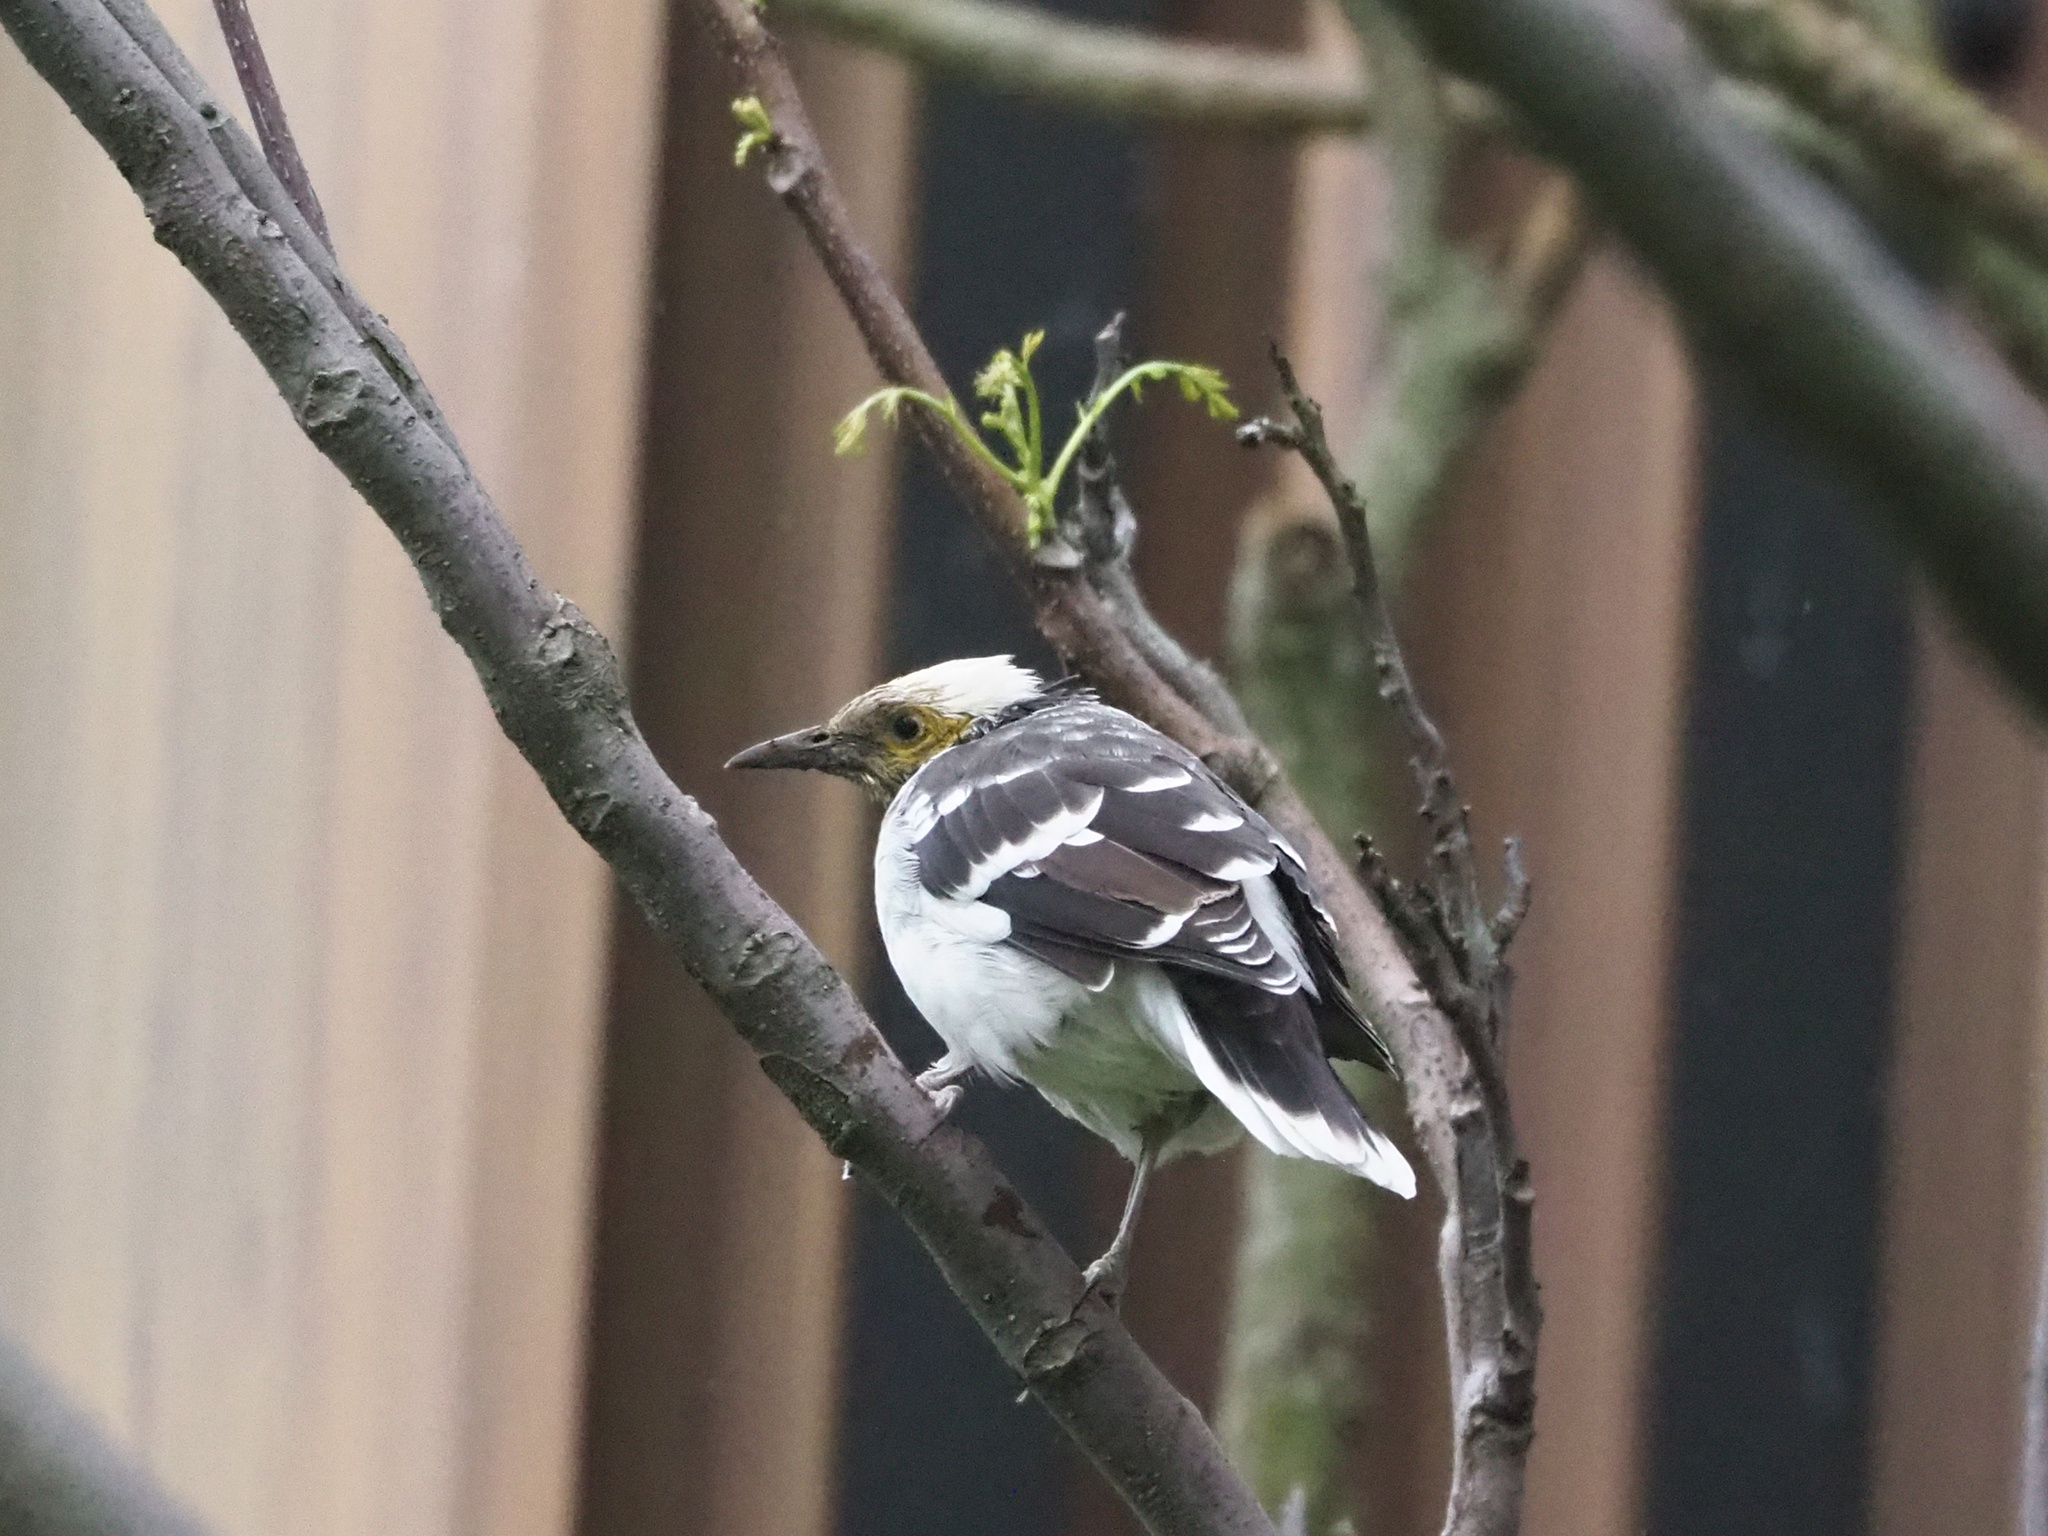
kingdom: Animalia
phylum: Chordata
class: Aves
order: Passeriformes
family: Sturnidae
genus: Gracupica
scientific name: Gracupica nigricollis
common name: Black-collared starling
